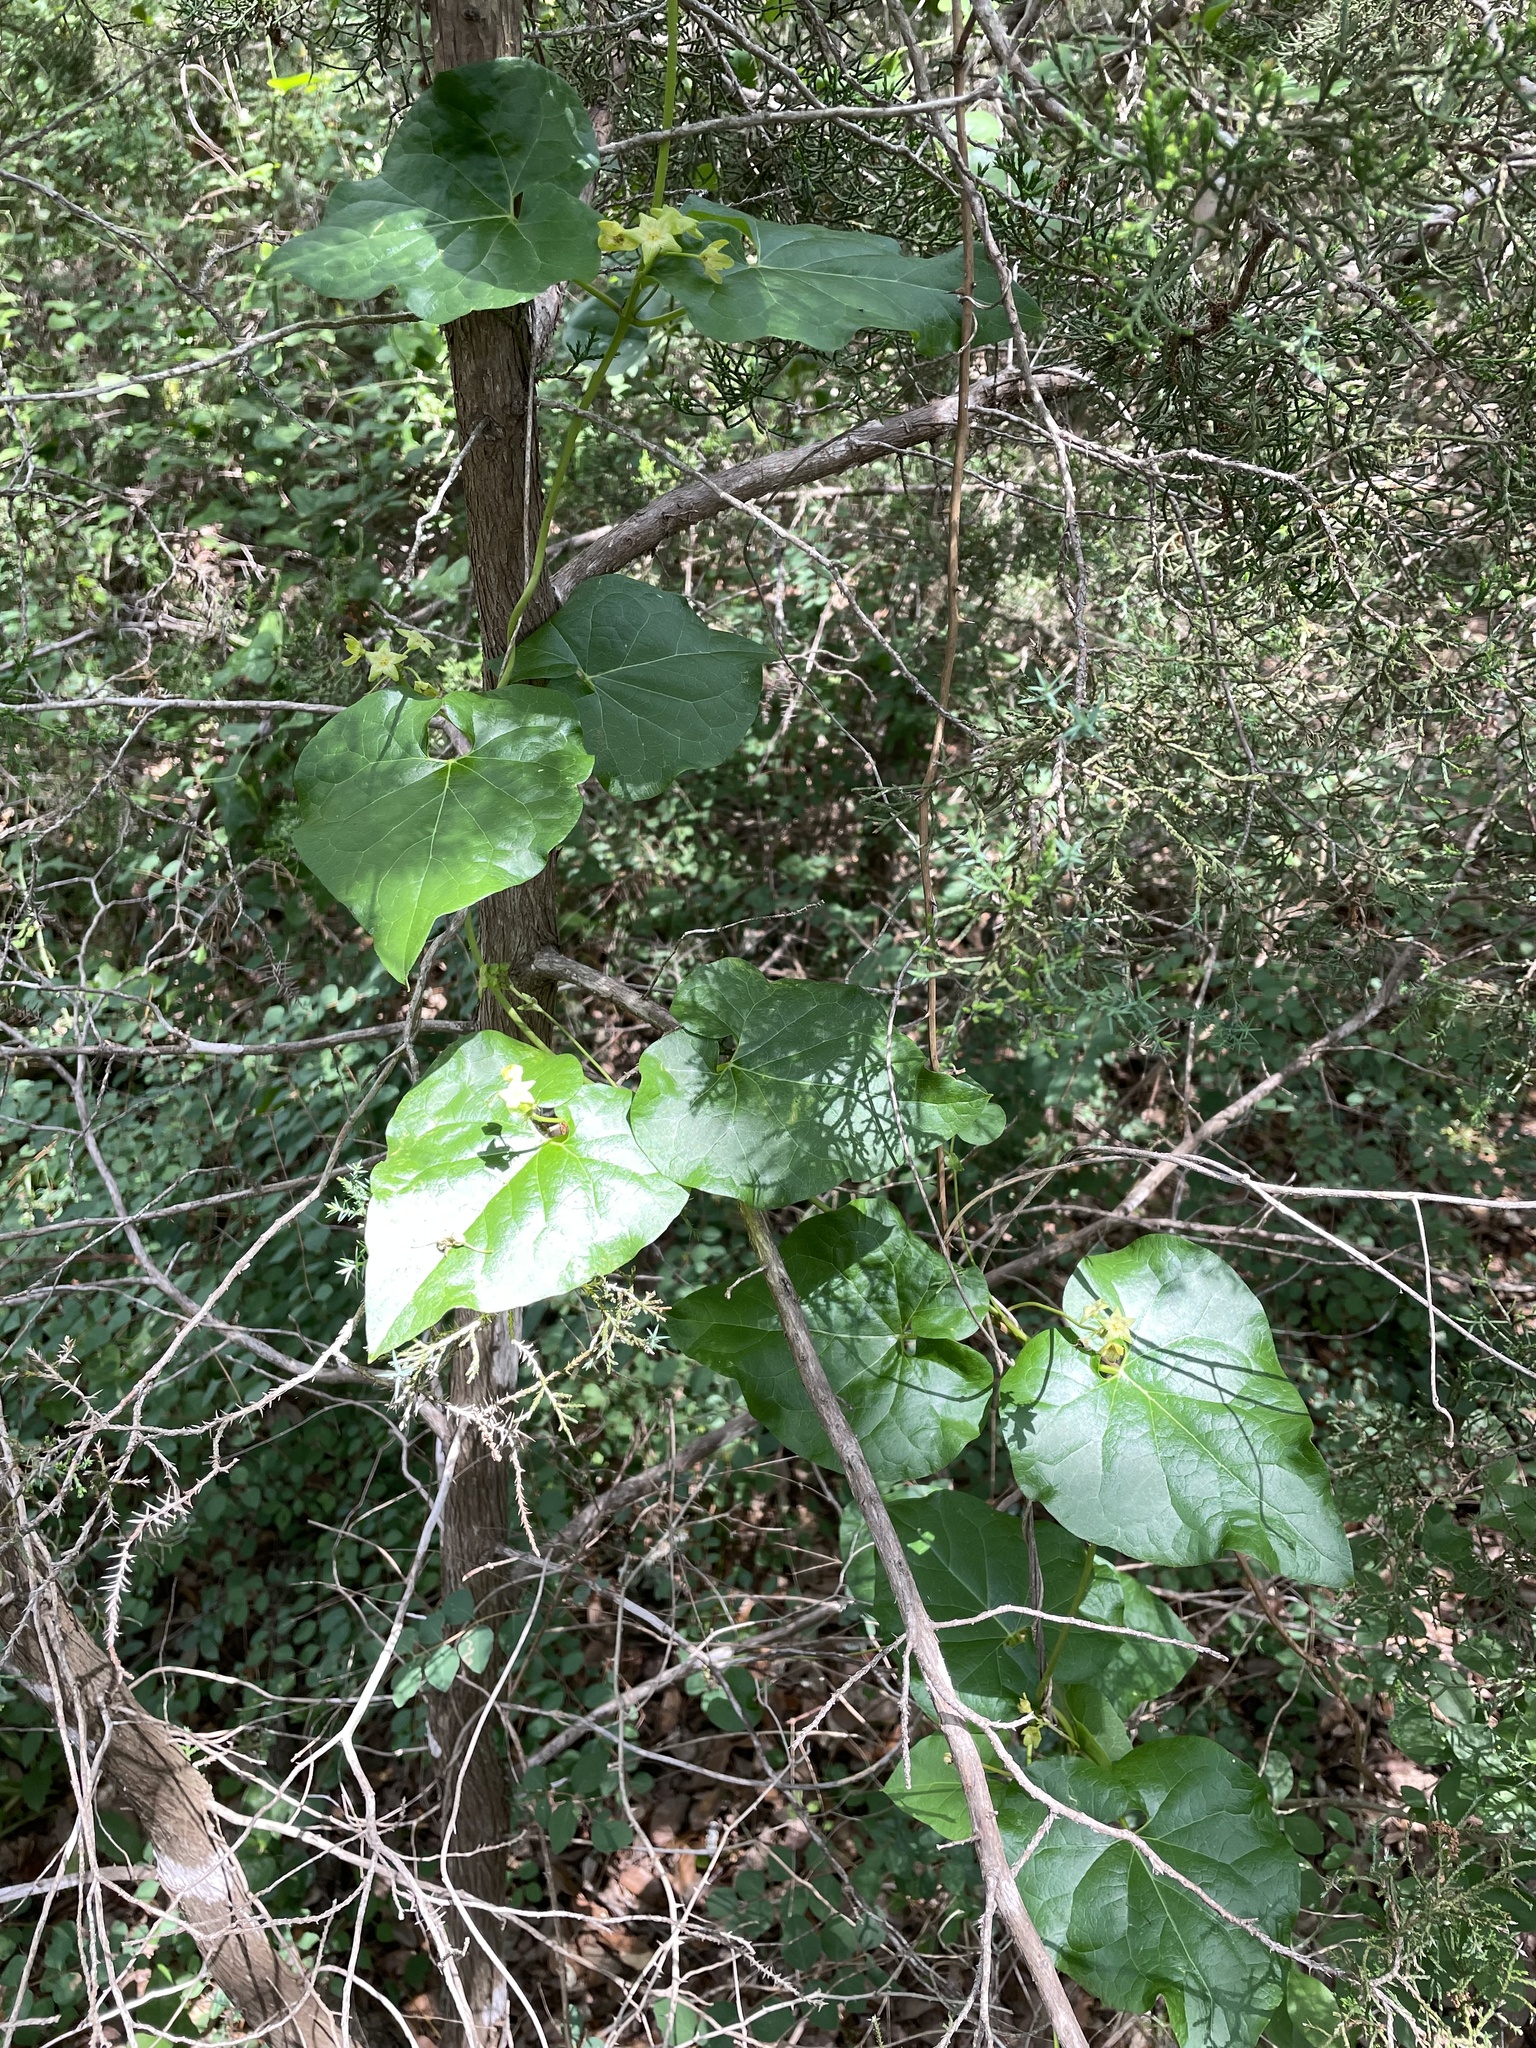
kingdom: Plantae
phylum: Tracheophyta
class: Magnoliopsida
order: Gentianales
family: Apocynaceae
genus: Matelea
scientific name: Matelea edwardsensis
